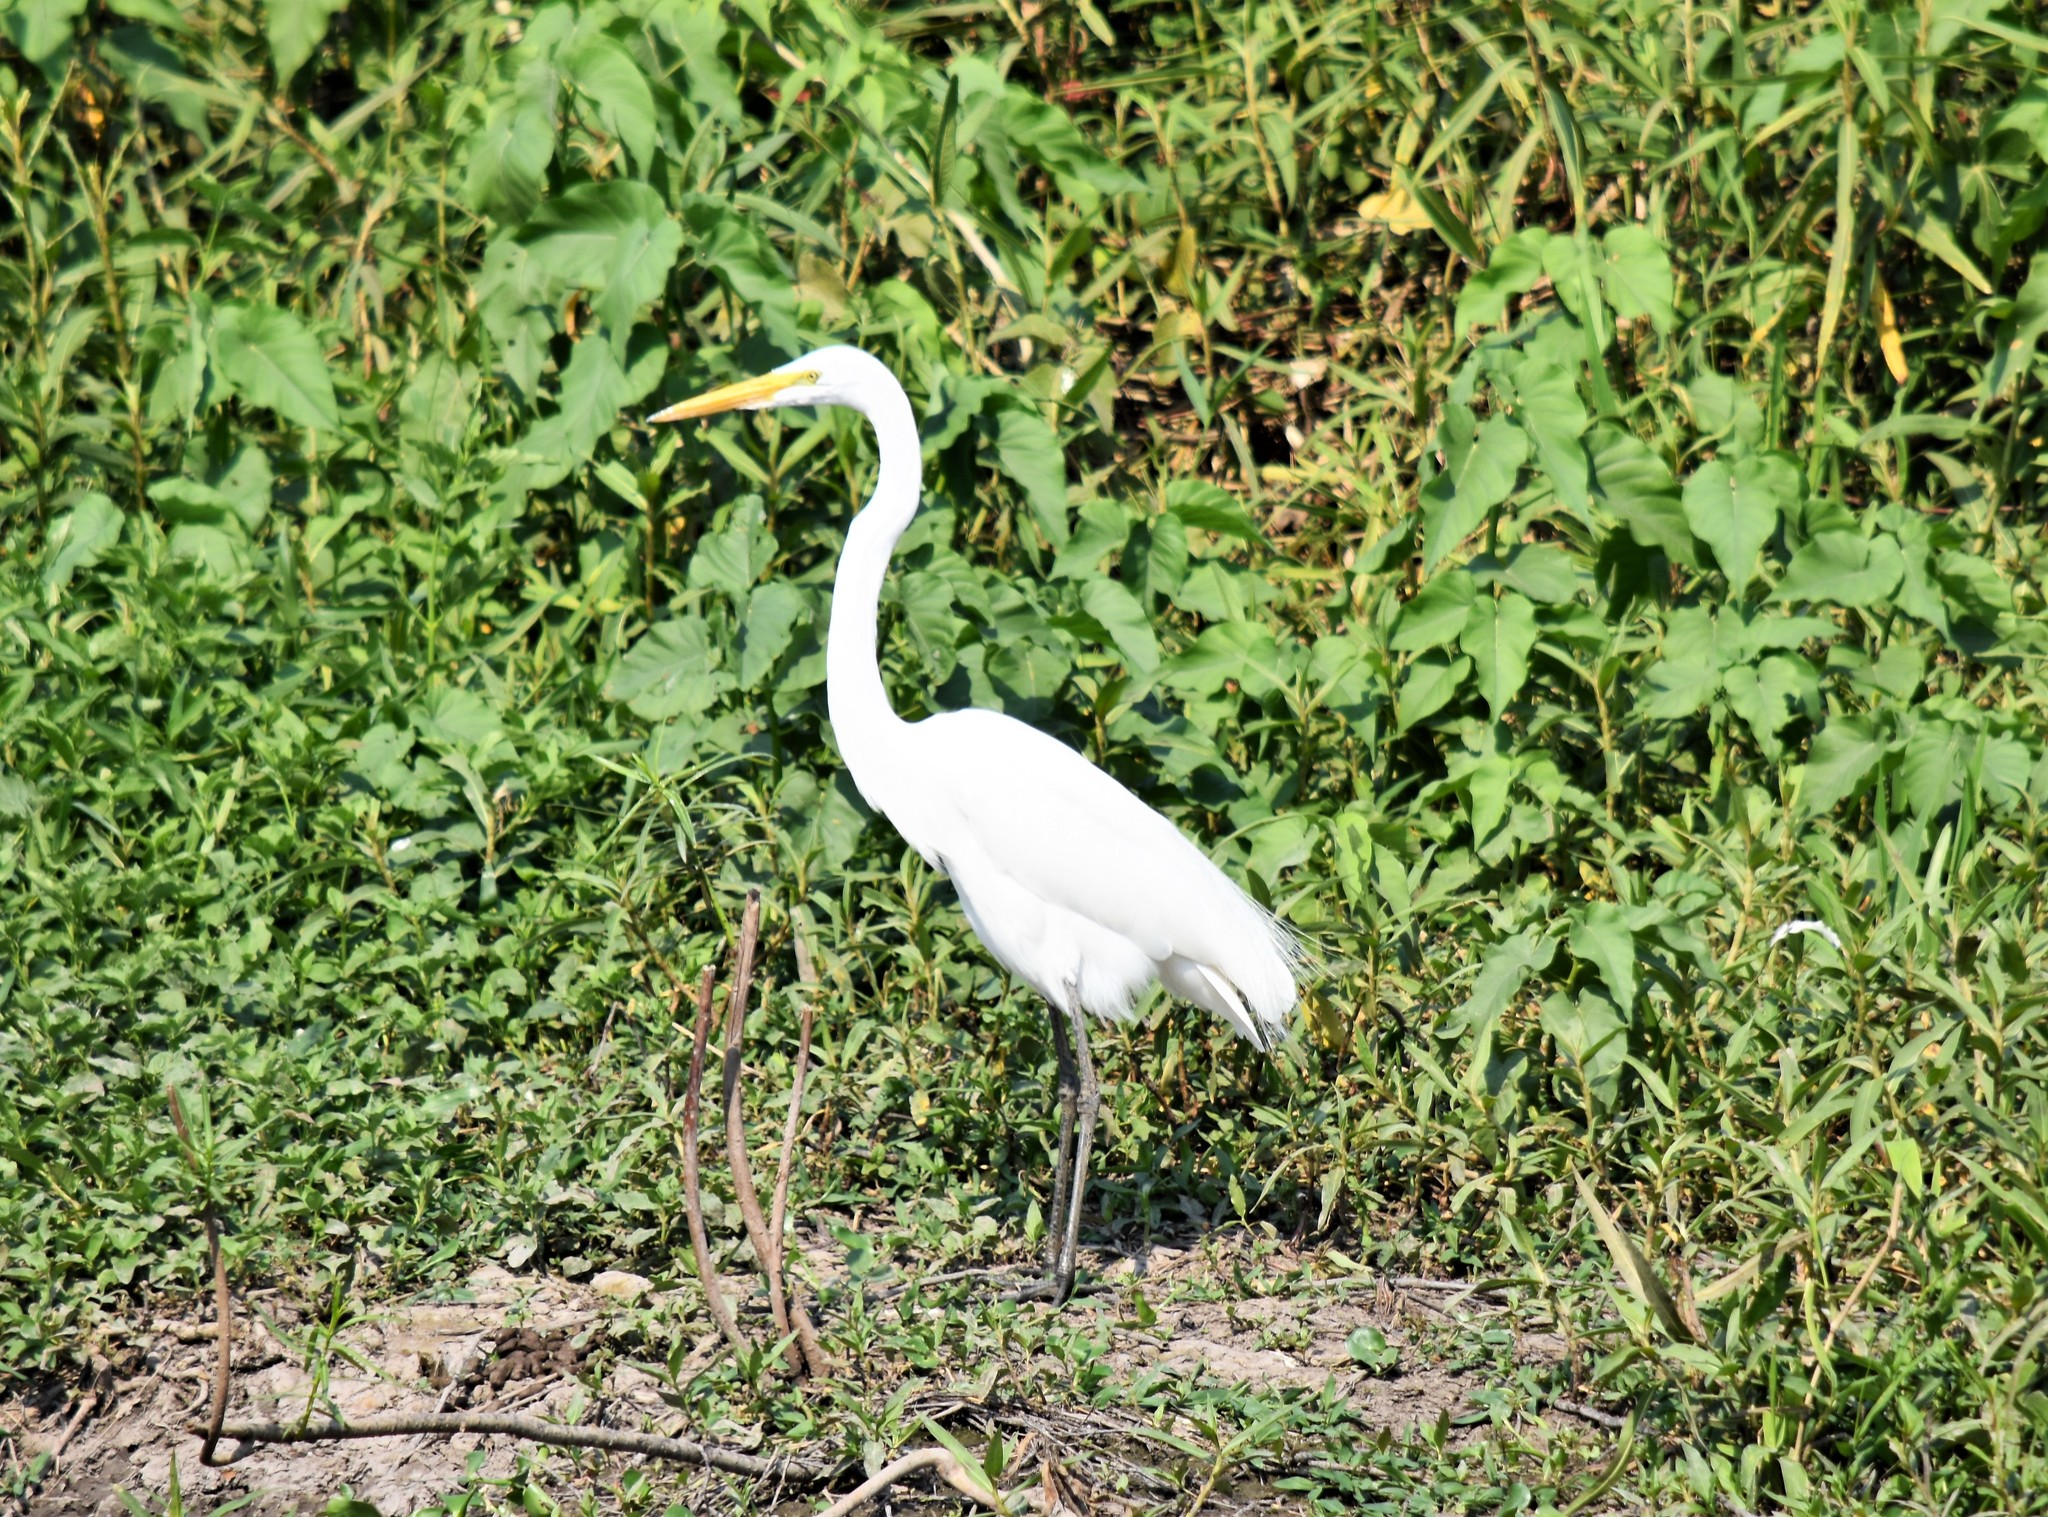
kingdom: Animalia
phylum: Chordata
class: Aves
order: Pelecaniformes
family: Ardeidae
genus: Ardea
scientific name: Ardea alba
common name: Great egret
